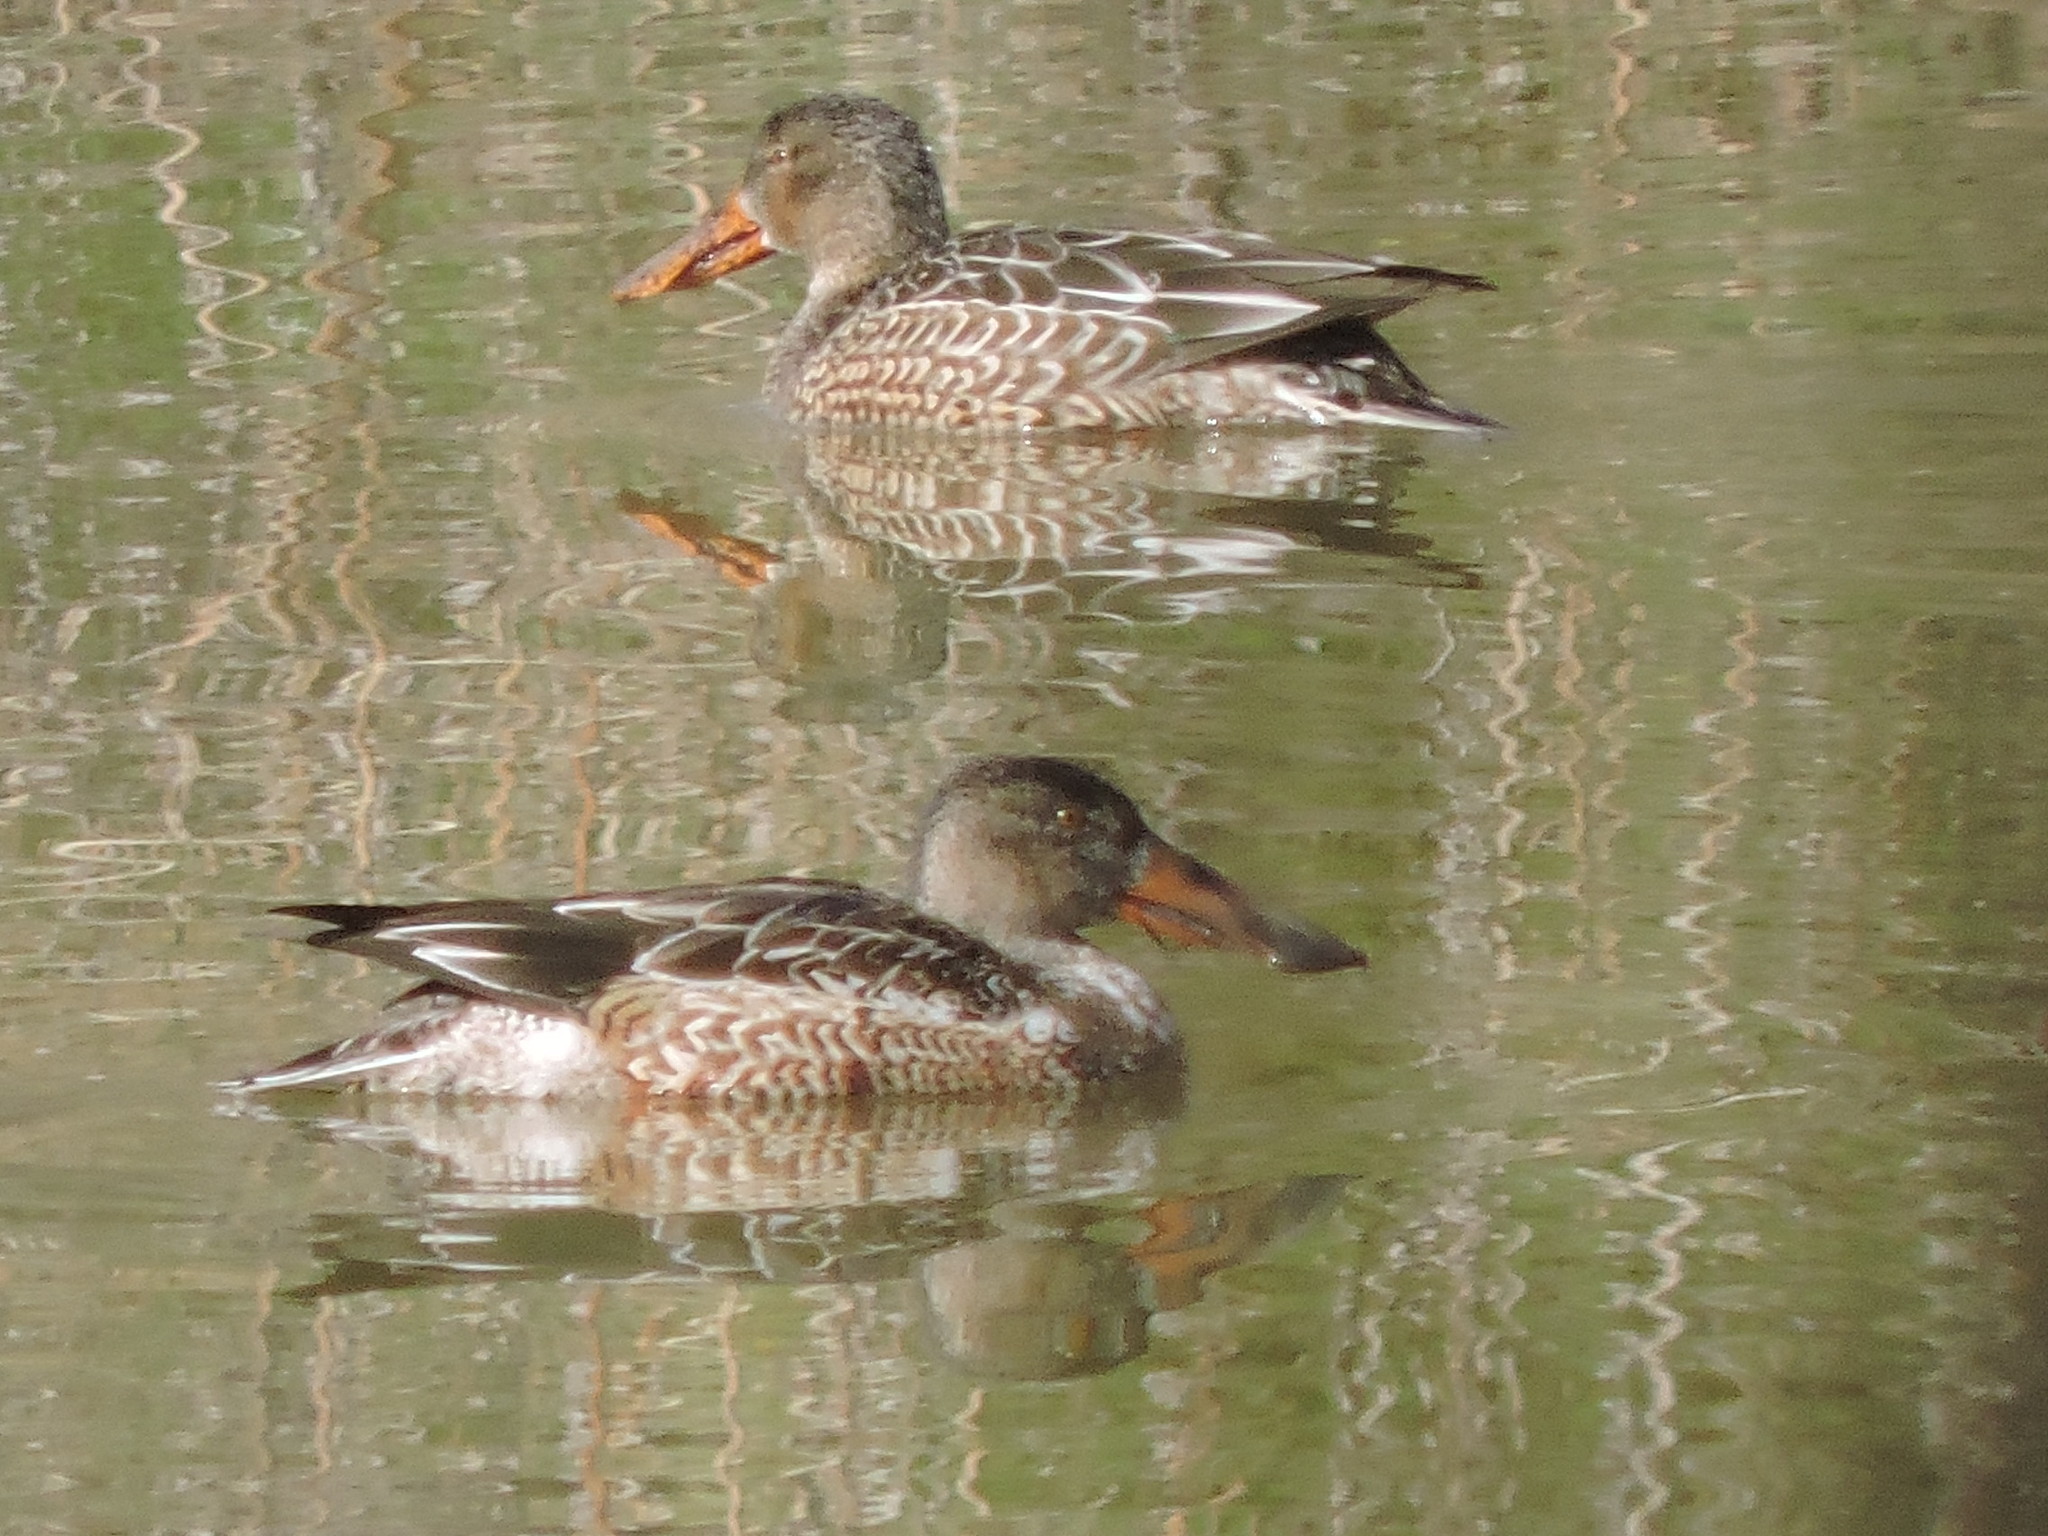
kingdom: Animalia
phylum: Chordata
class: Aves
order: Anseriformes
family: Anatidae
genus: Spatula
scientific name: Spatula clypeata
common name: Northern shoveler
